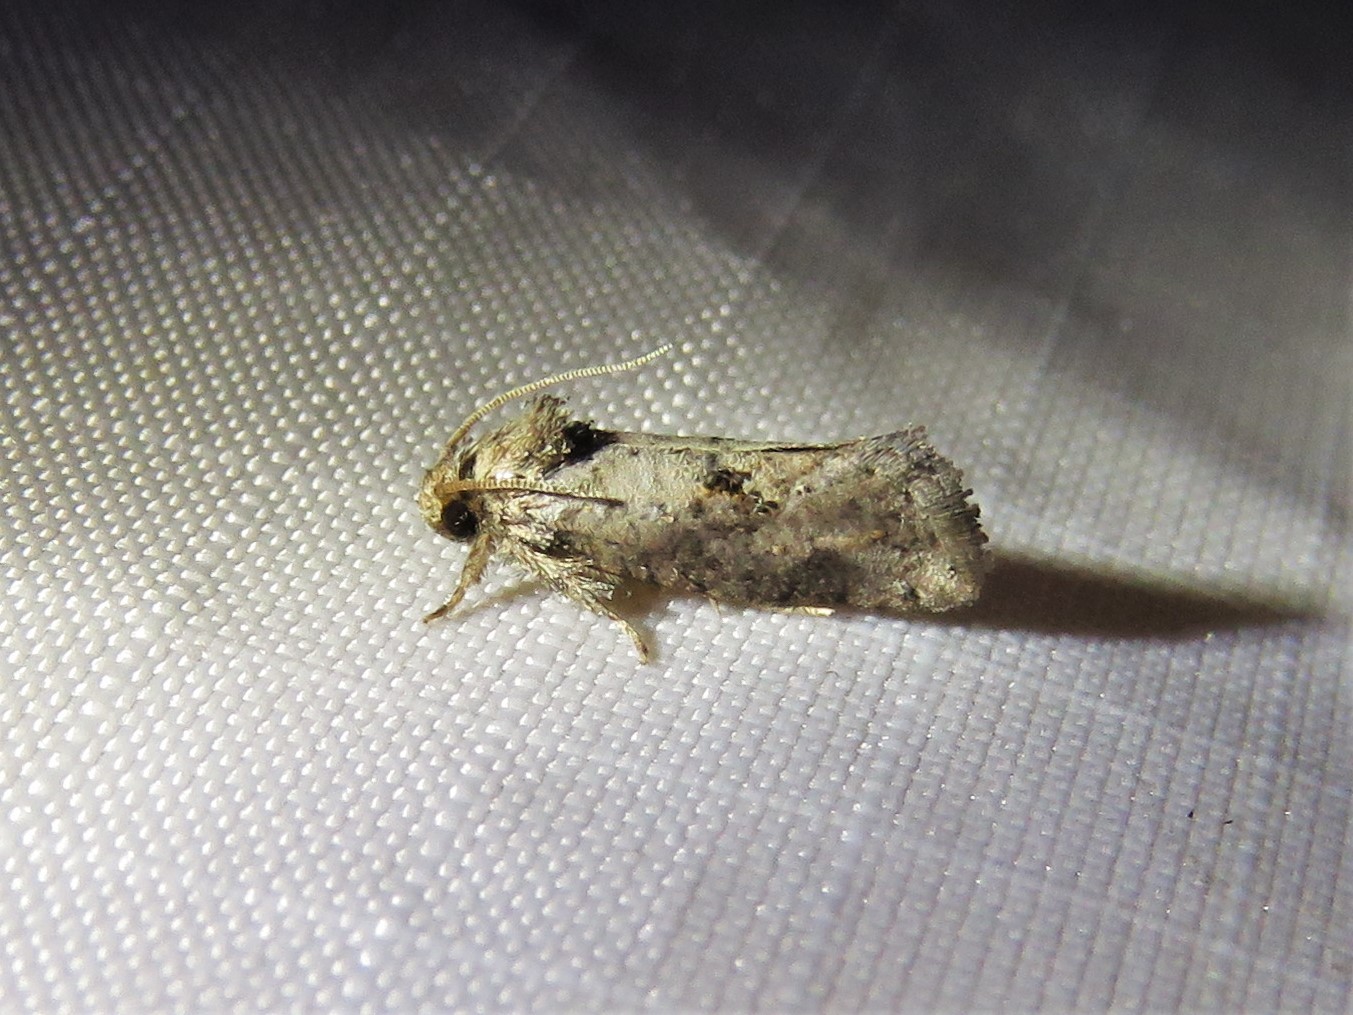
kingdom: Animalia
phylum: Arthropoda
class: Insecta
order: Lepidoptera
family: Tineidae
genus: Acrolophus
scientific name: Acrolophus piger
